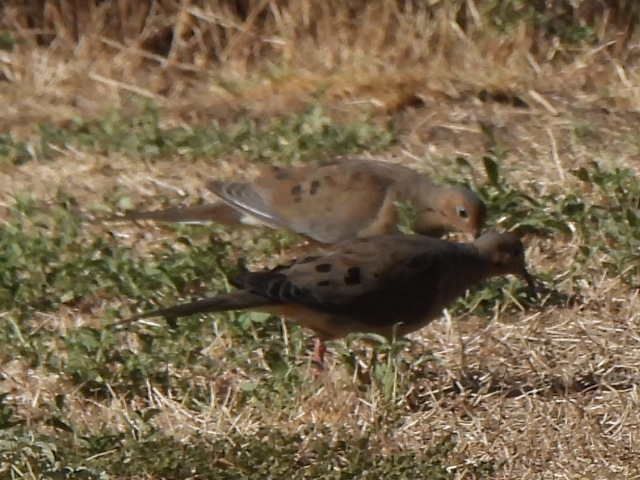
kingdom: Animalia
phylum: Chordata
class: Aves
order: Columbiformes
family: Columbidae
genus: Zenaida
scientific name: Zenaida macroura
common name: Mourning dove
